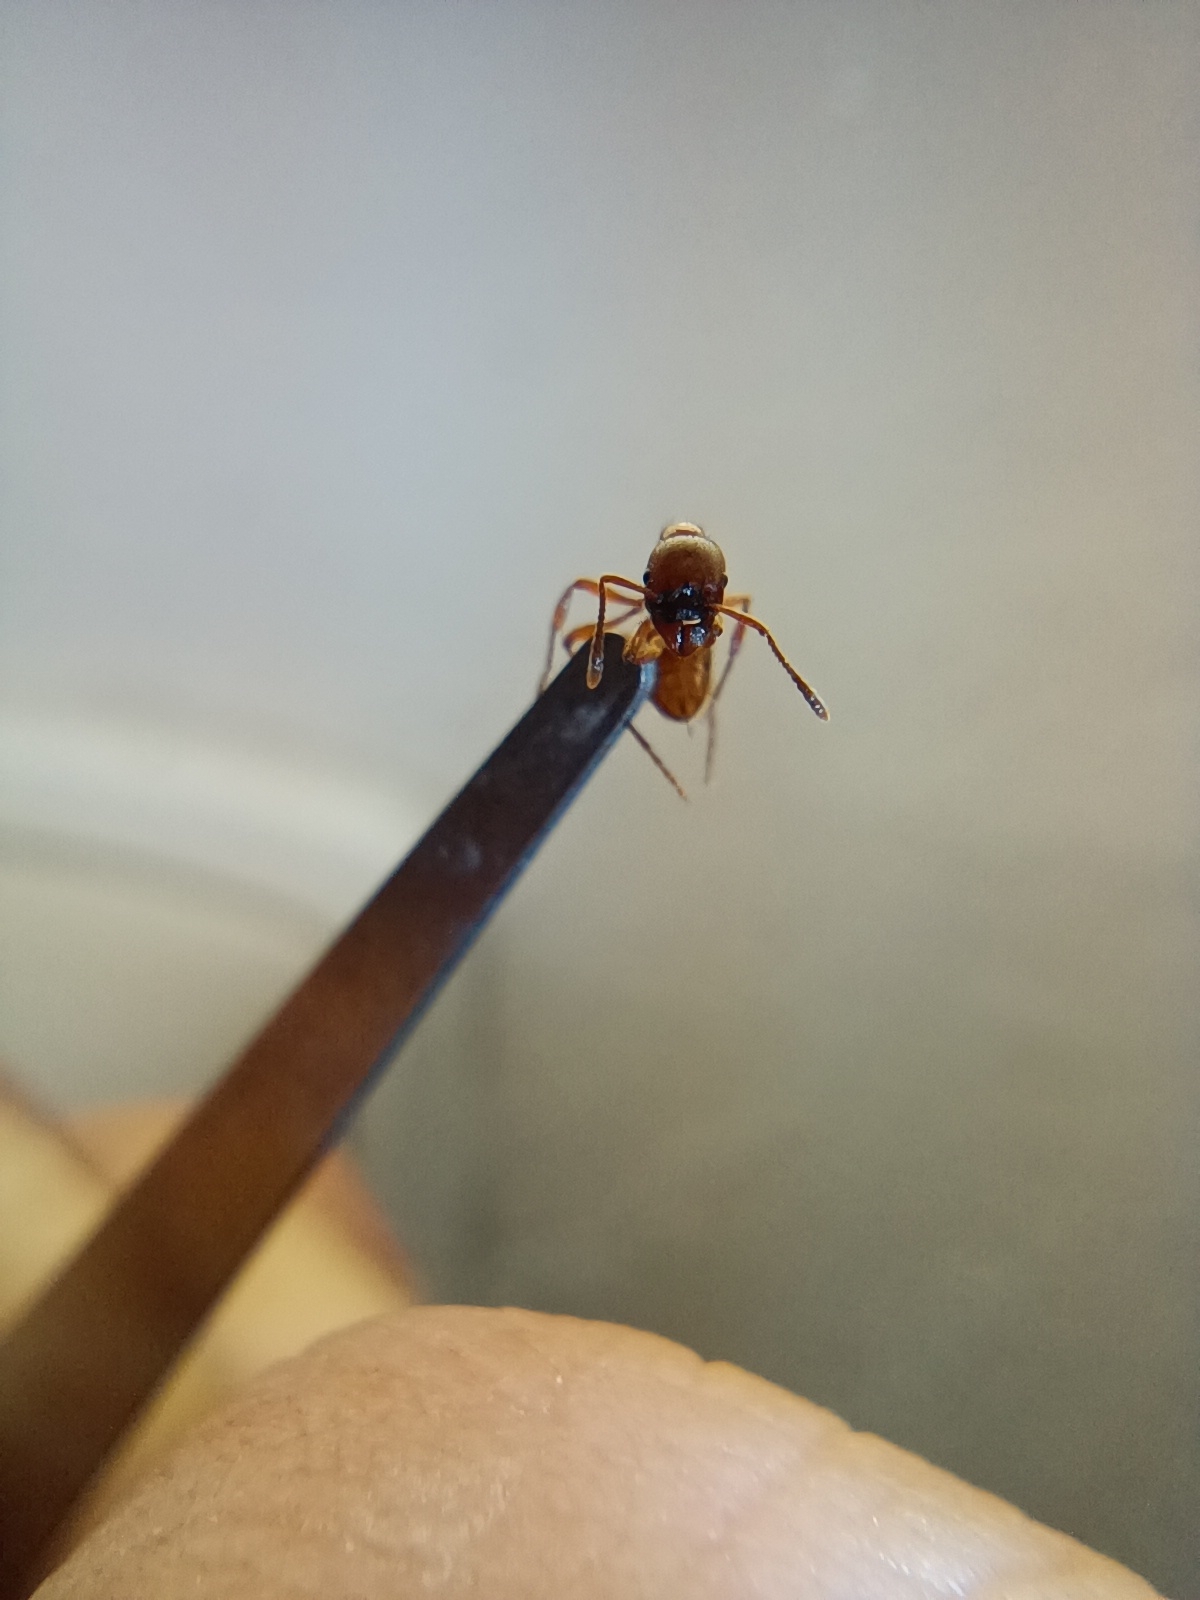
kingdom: Animalia
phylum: Arthropoda
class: Insecta
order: Hymenoptera
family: Formicidae
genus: Manica
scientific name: Manica rubida
